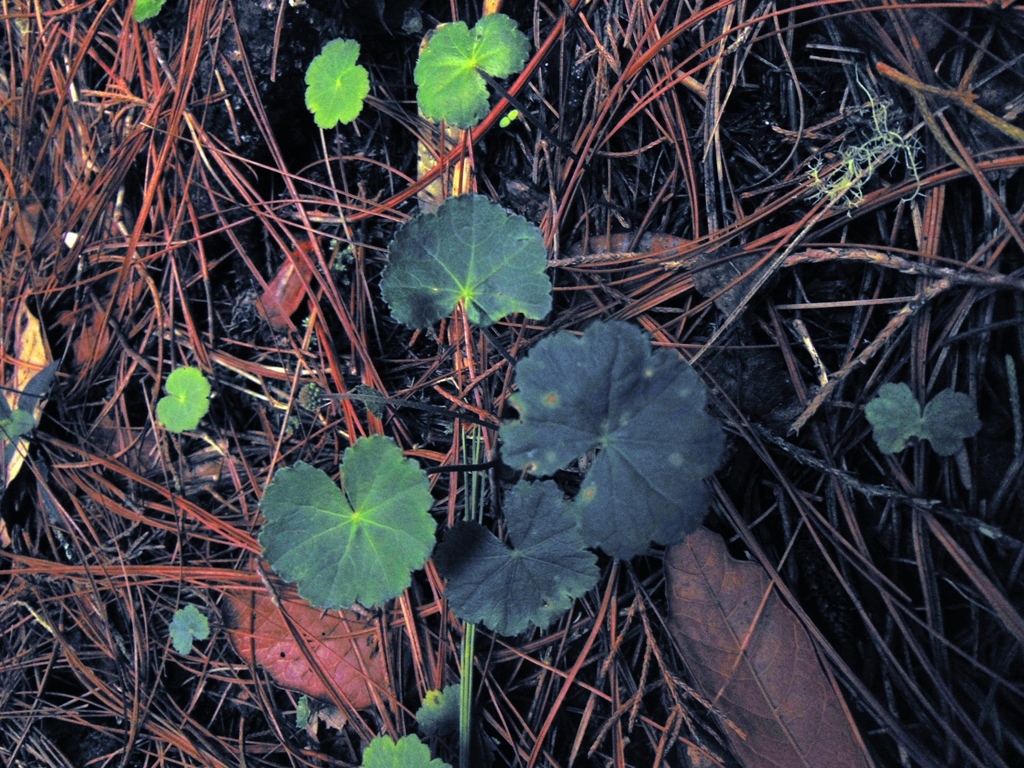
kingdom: Plantae
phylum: Tracheophyta
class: Magnoliopsida
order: Apiales
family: Araliaceae
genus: Hydrocotyle
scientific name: Hydrocotyle mexicana
